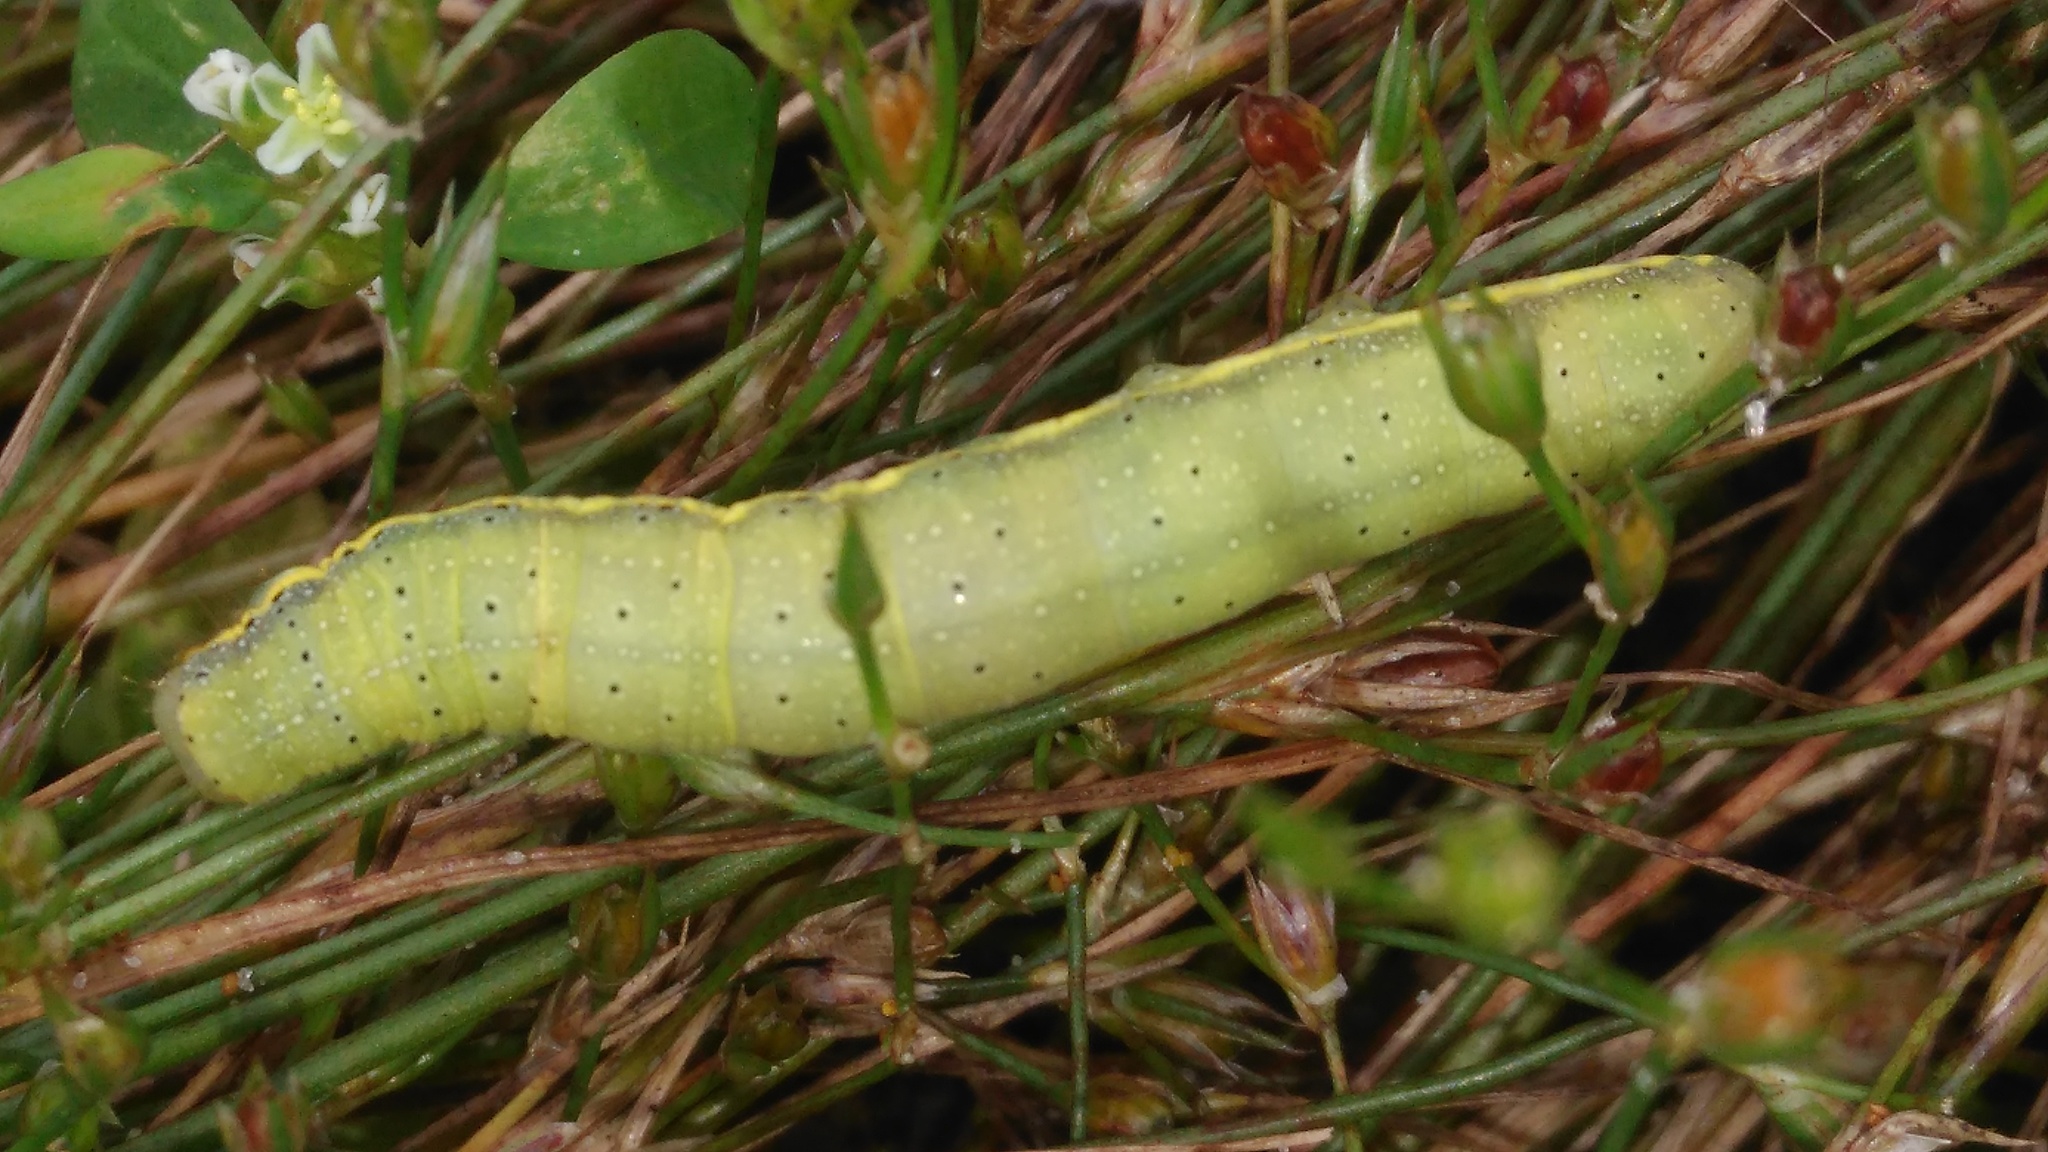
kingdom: Animalia
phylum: Arthropoda
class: Insecta
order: Lepidoptera
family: Noctuidae
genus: Lacanobia
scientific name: Lacanobia oleracea
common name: Bright-line brown-eye
